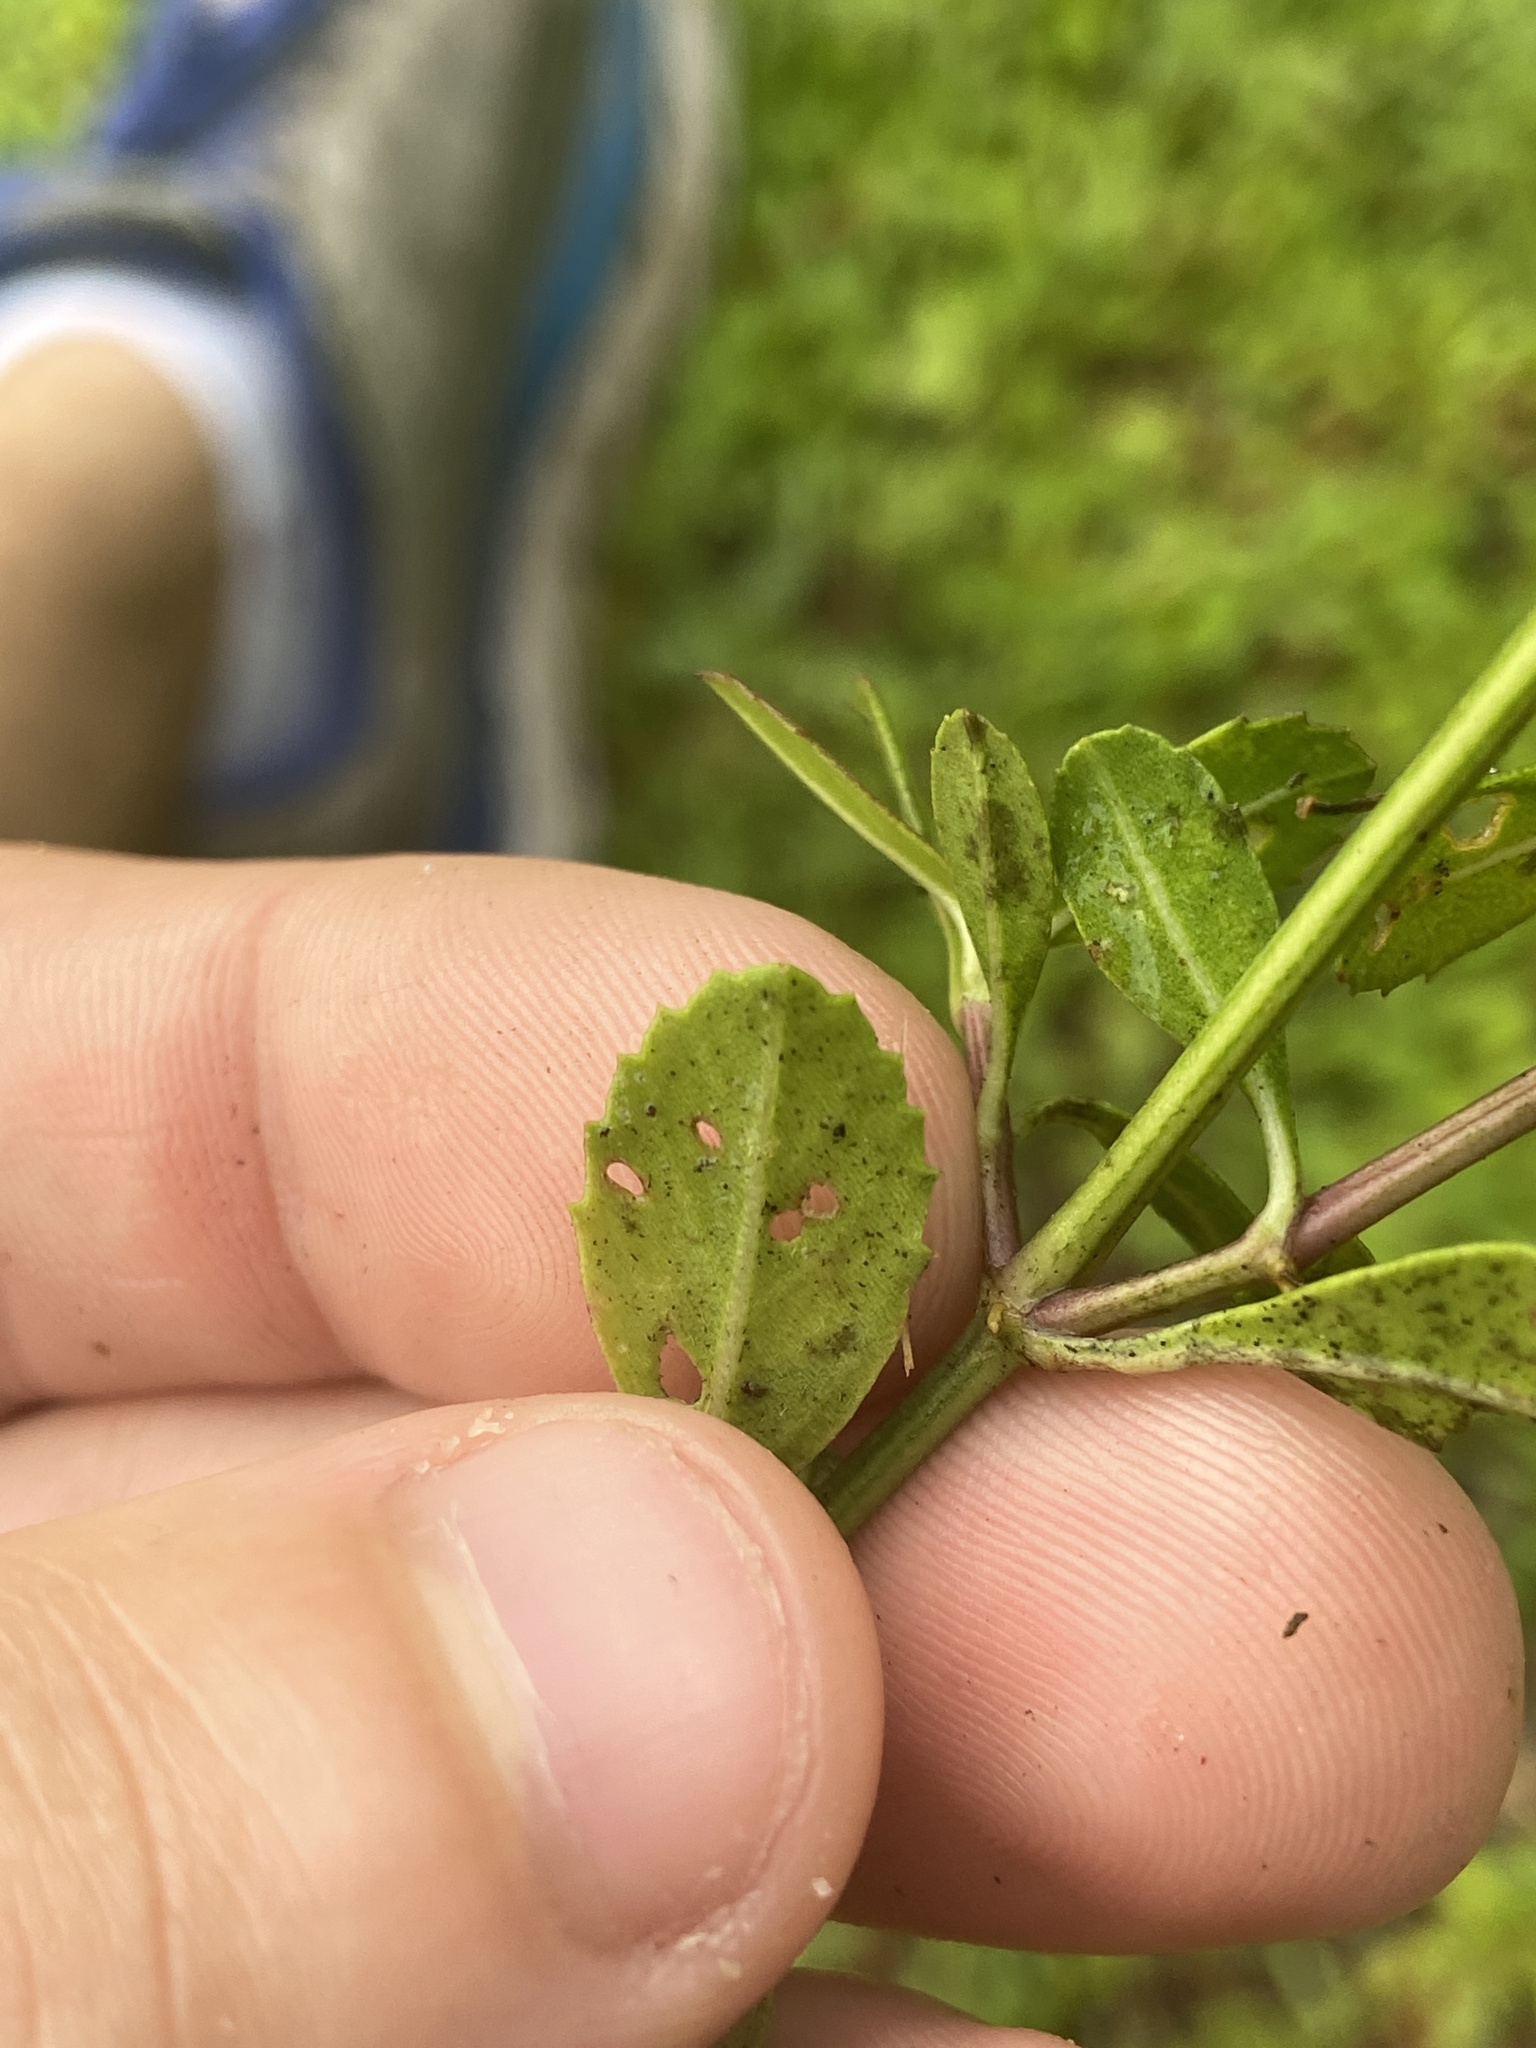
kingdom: Plantae
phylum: Tracheophyta
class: Magnoliopsida
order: Lamiales
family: Verbenaceae
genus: Phyla
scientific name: Phyla nodiflora
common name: Frogfruit
